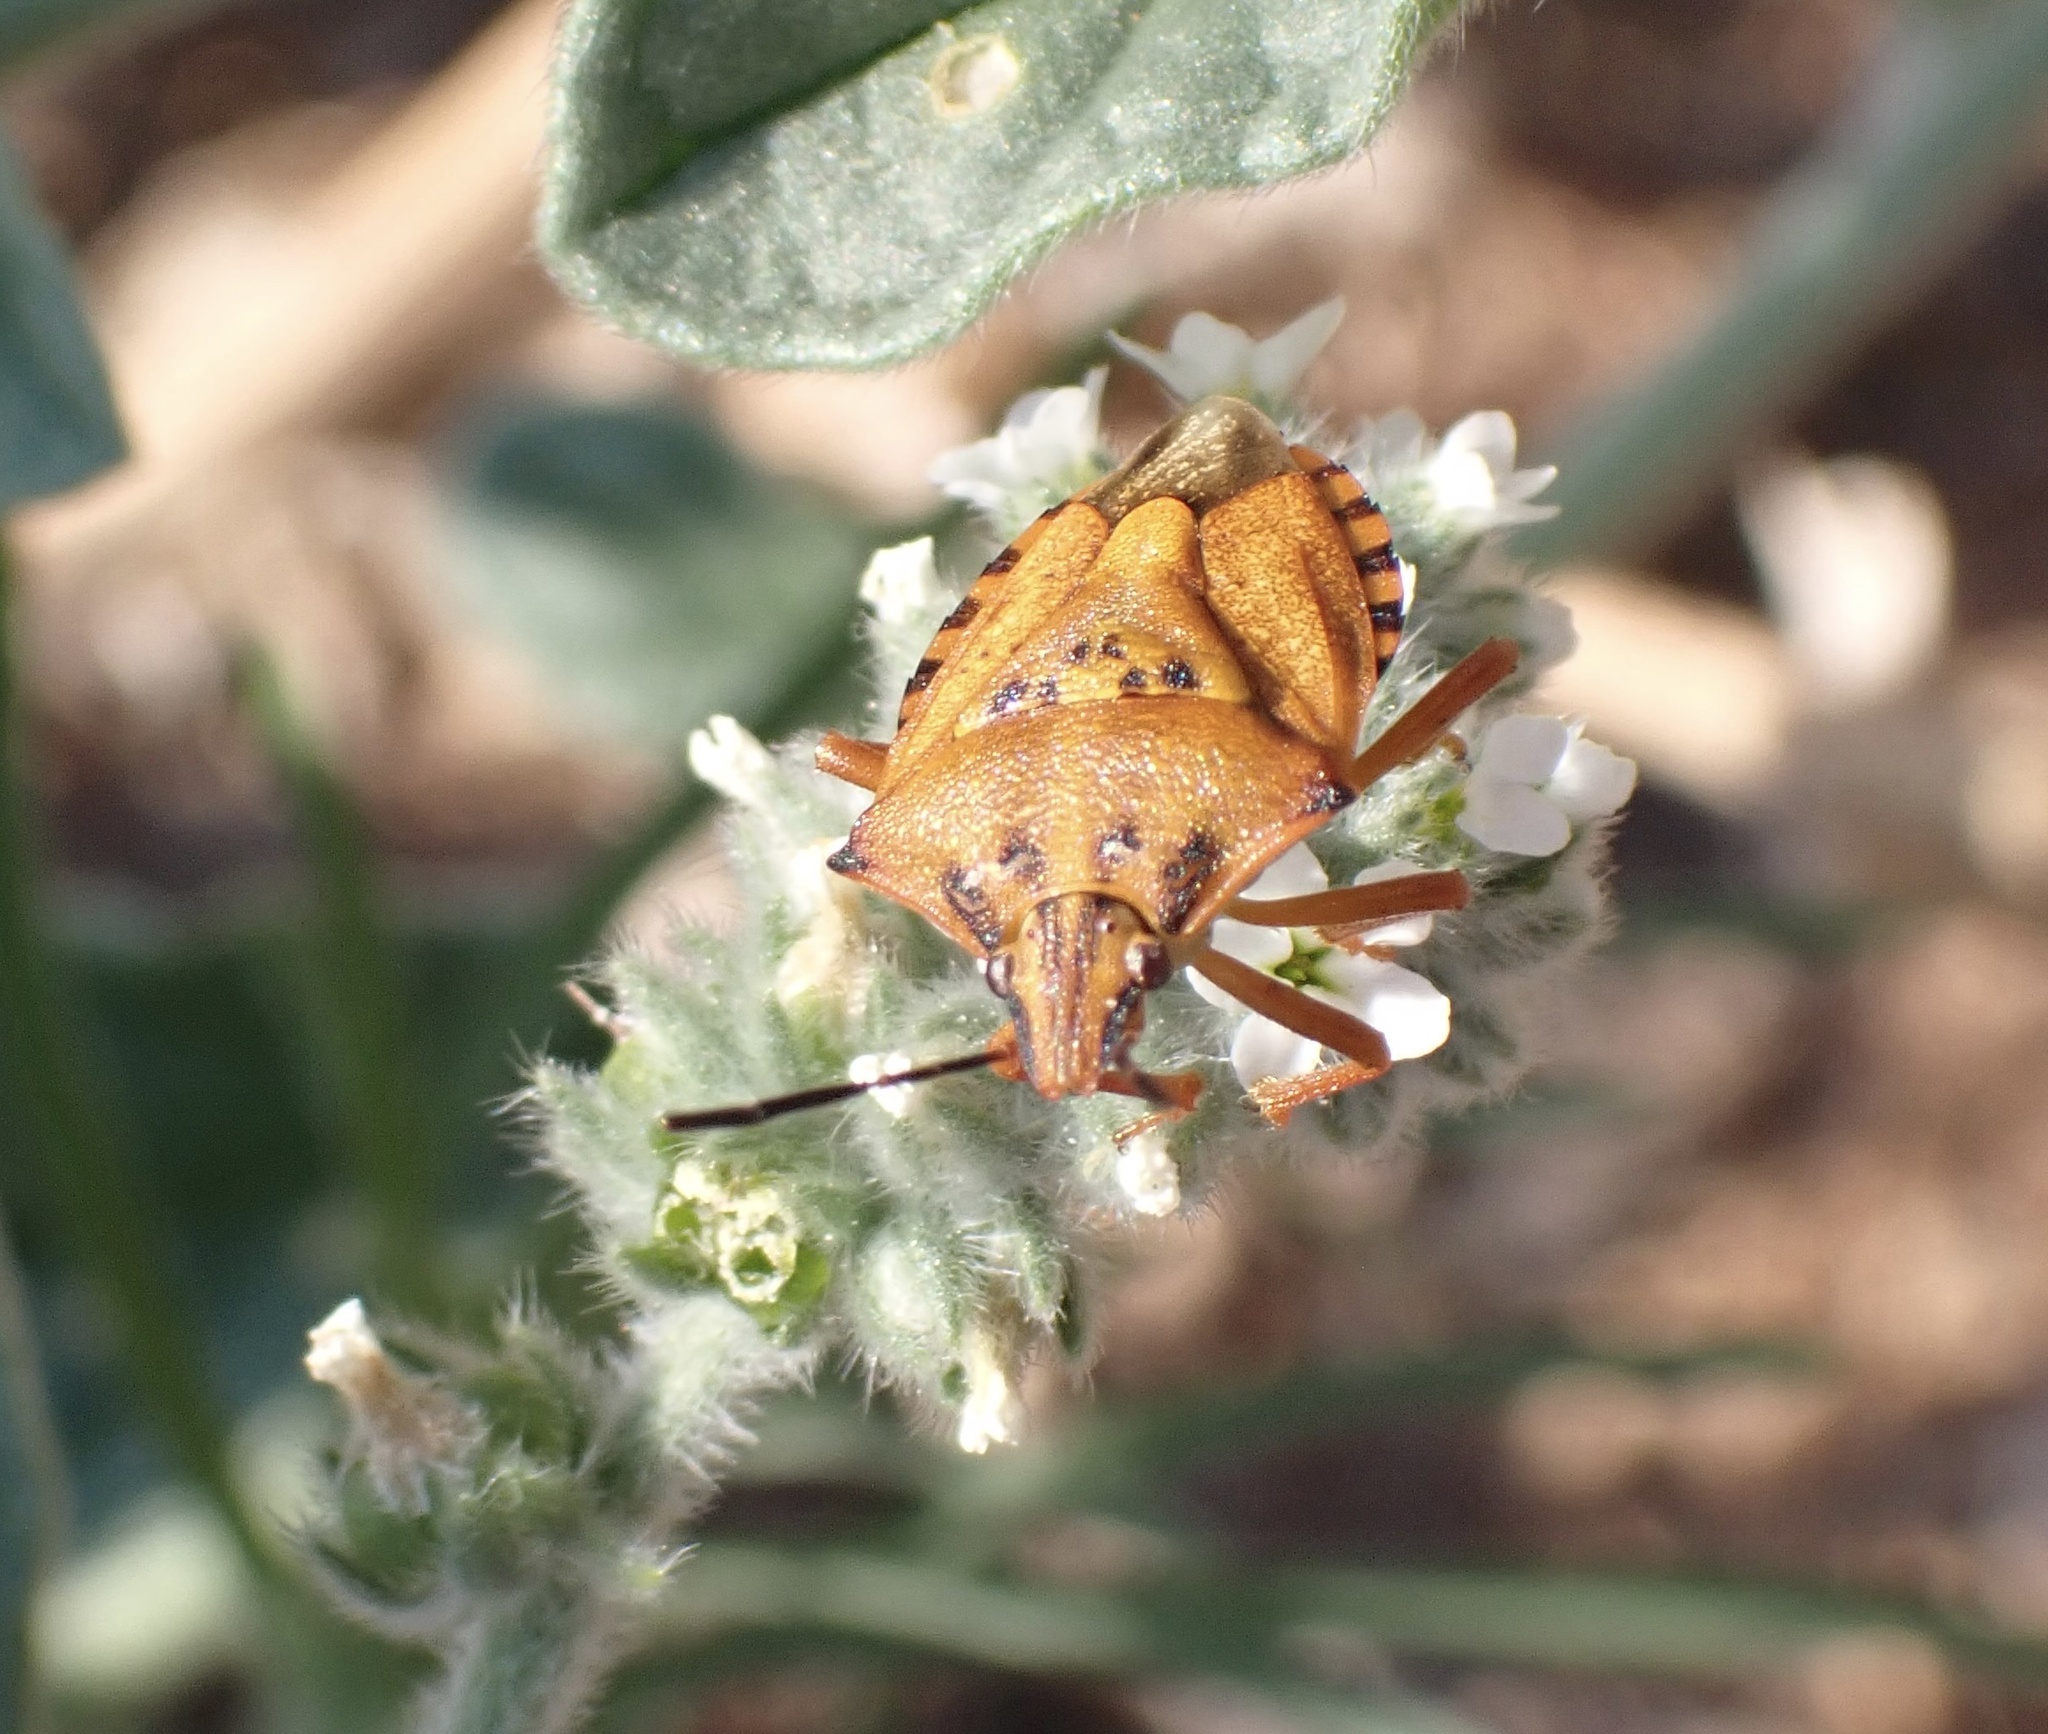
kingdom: Animalia
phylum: Arthropoda
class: Insecta
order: Hemiptera
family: Pentatomidae
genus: Carpocoris
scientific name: Carpocoris mediterraneus
